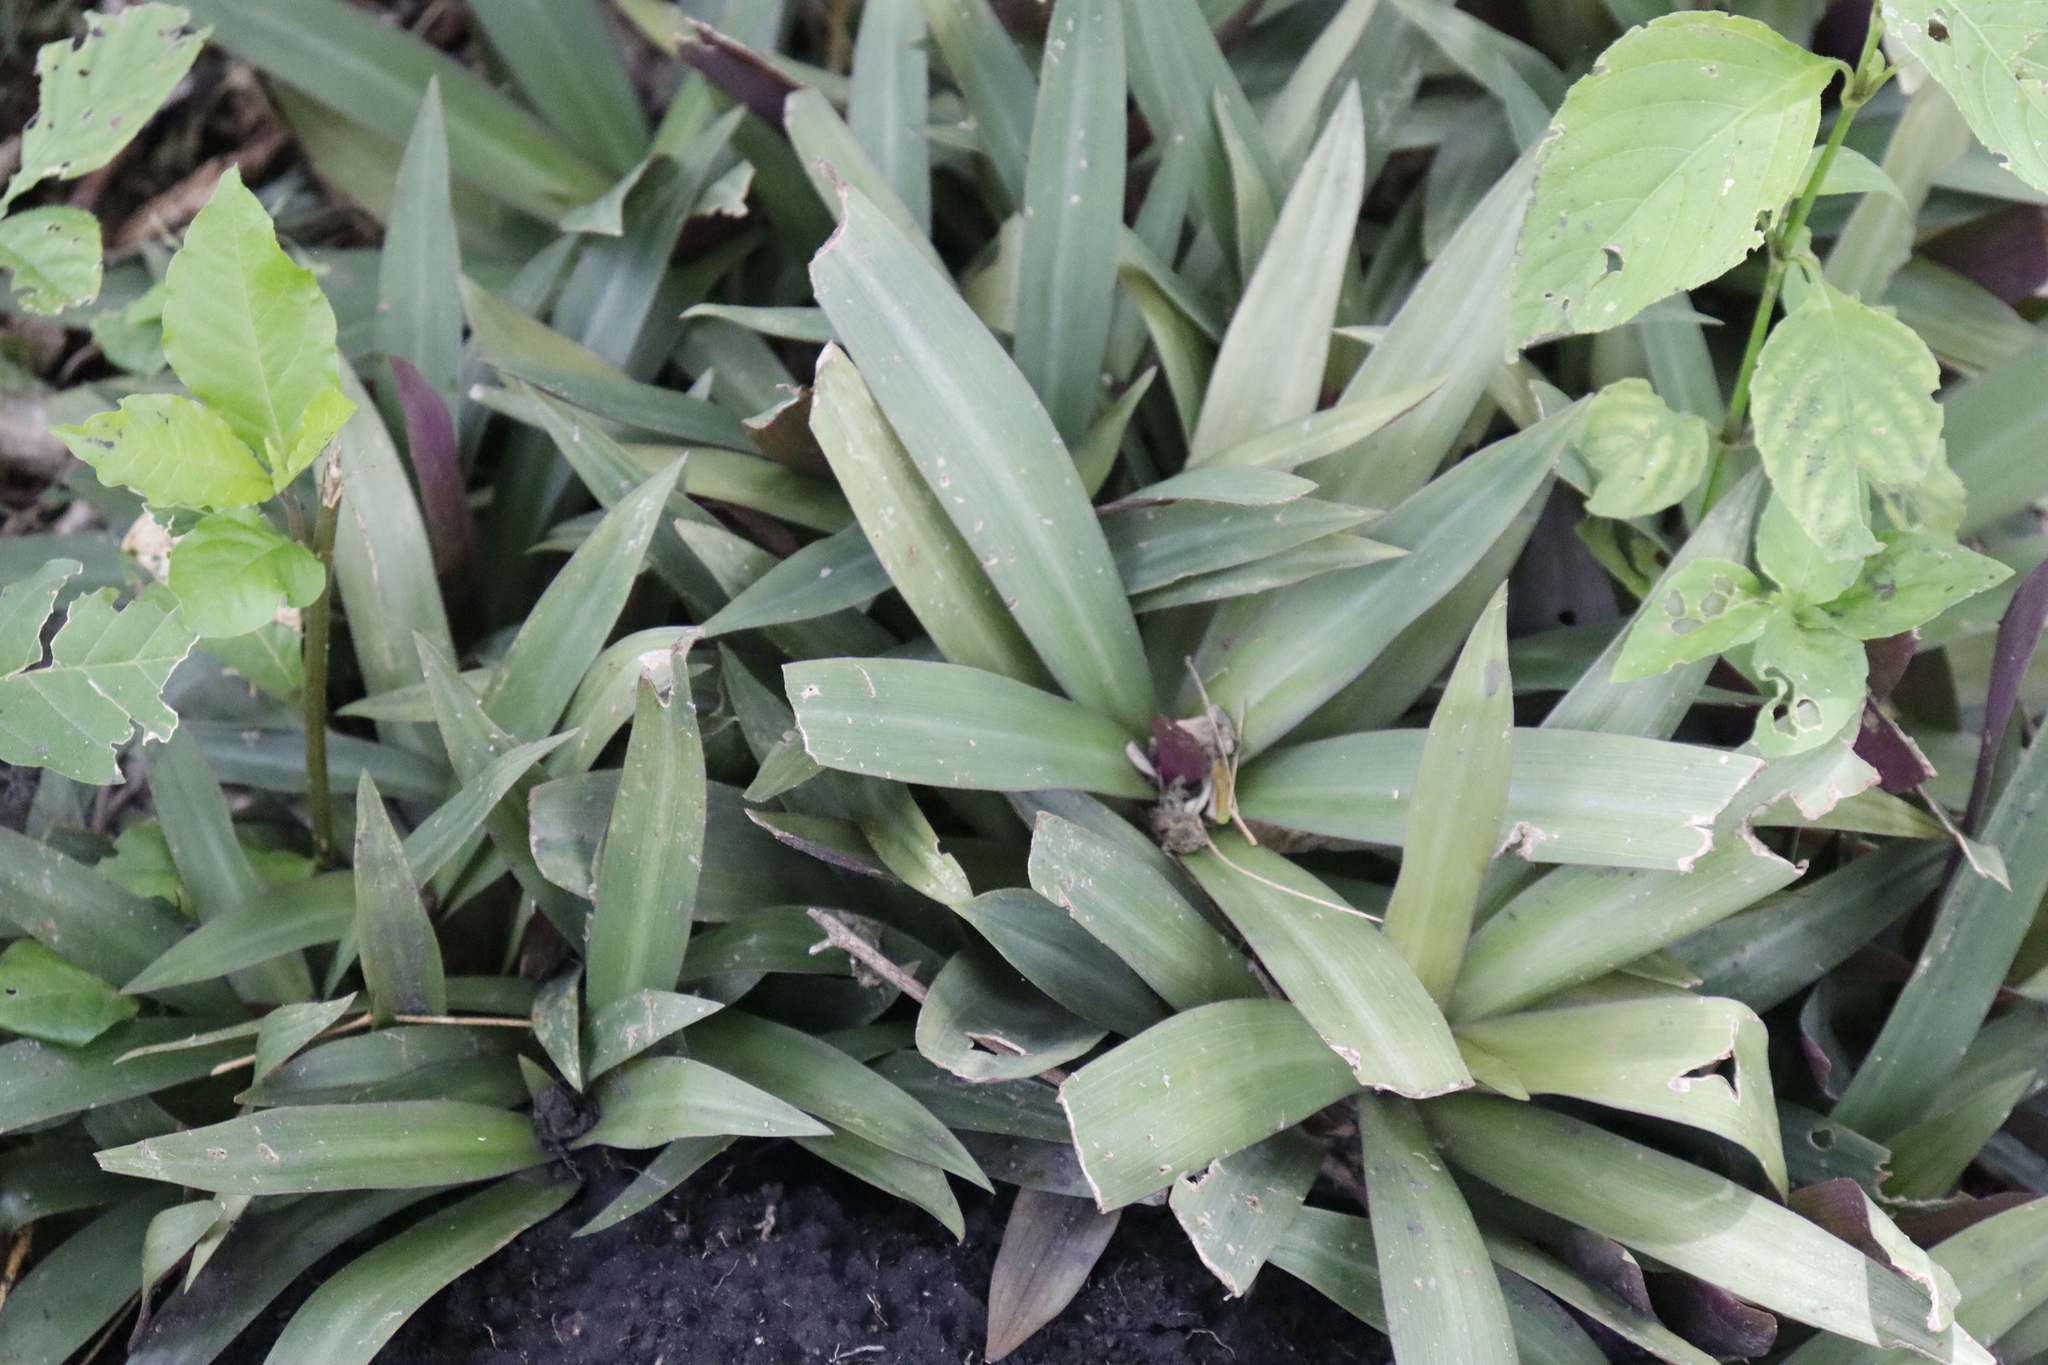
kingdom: Plantae
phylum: Tracheophyta
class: Liliopsida
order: Commelinales
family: Commelinaceae
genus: Tradescantia
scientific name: Tradescantia spathacea
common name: Boatlily
